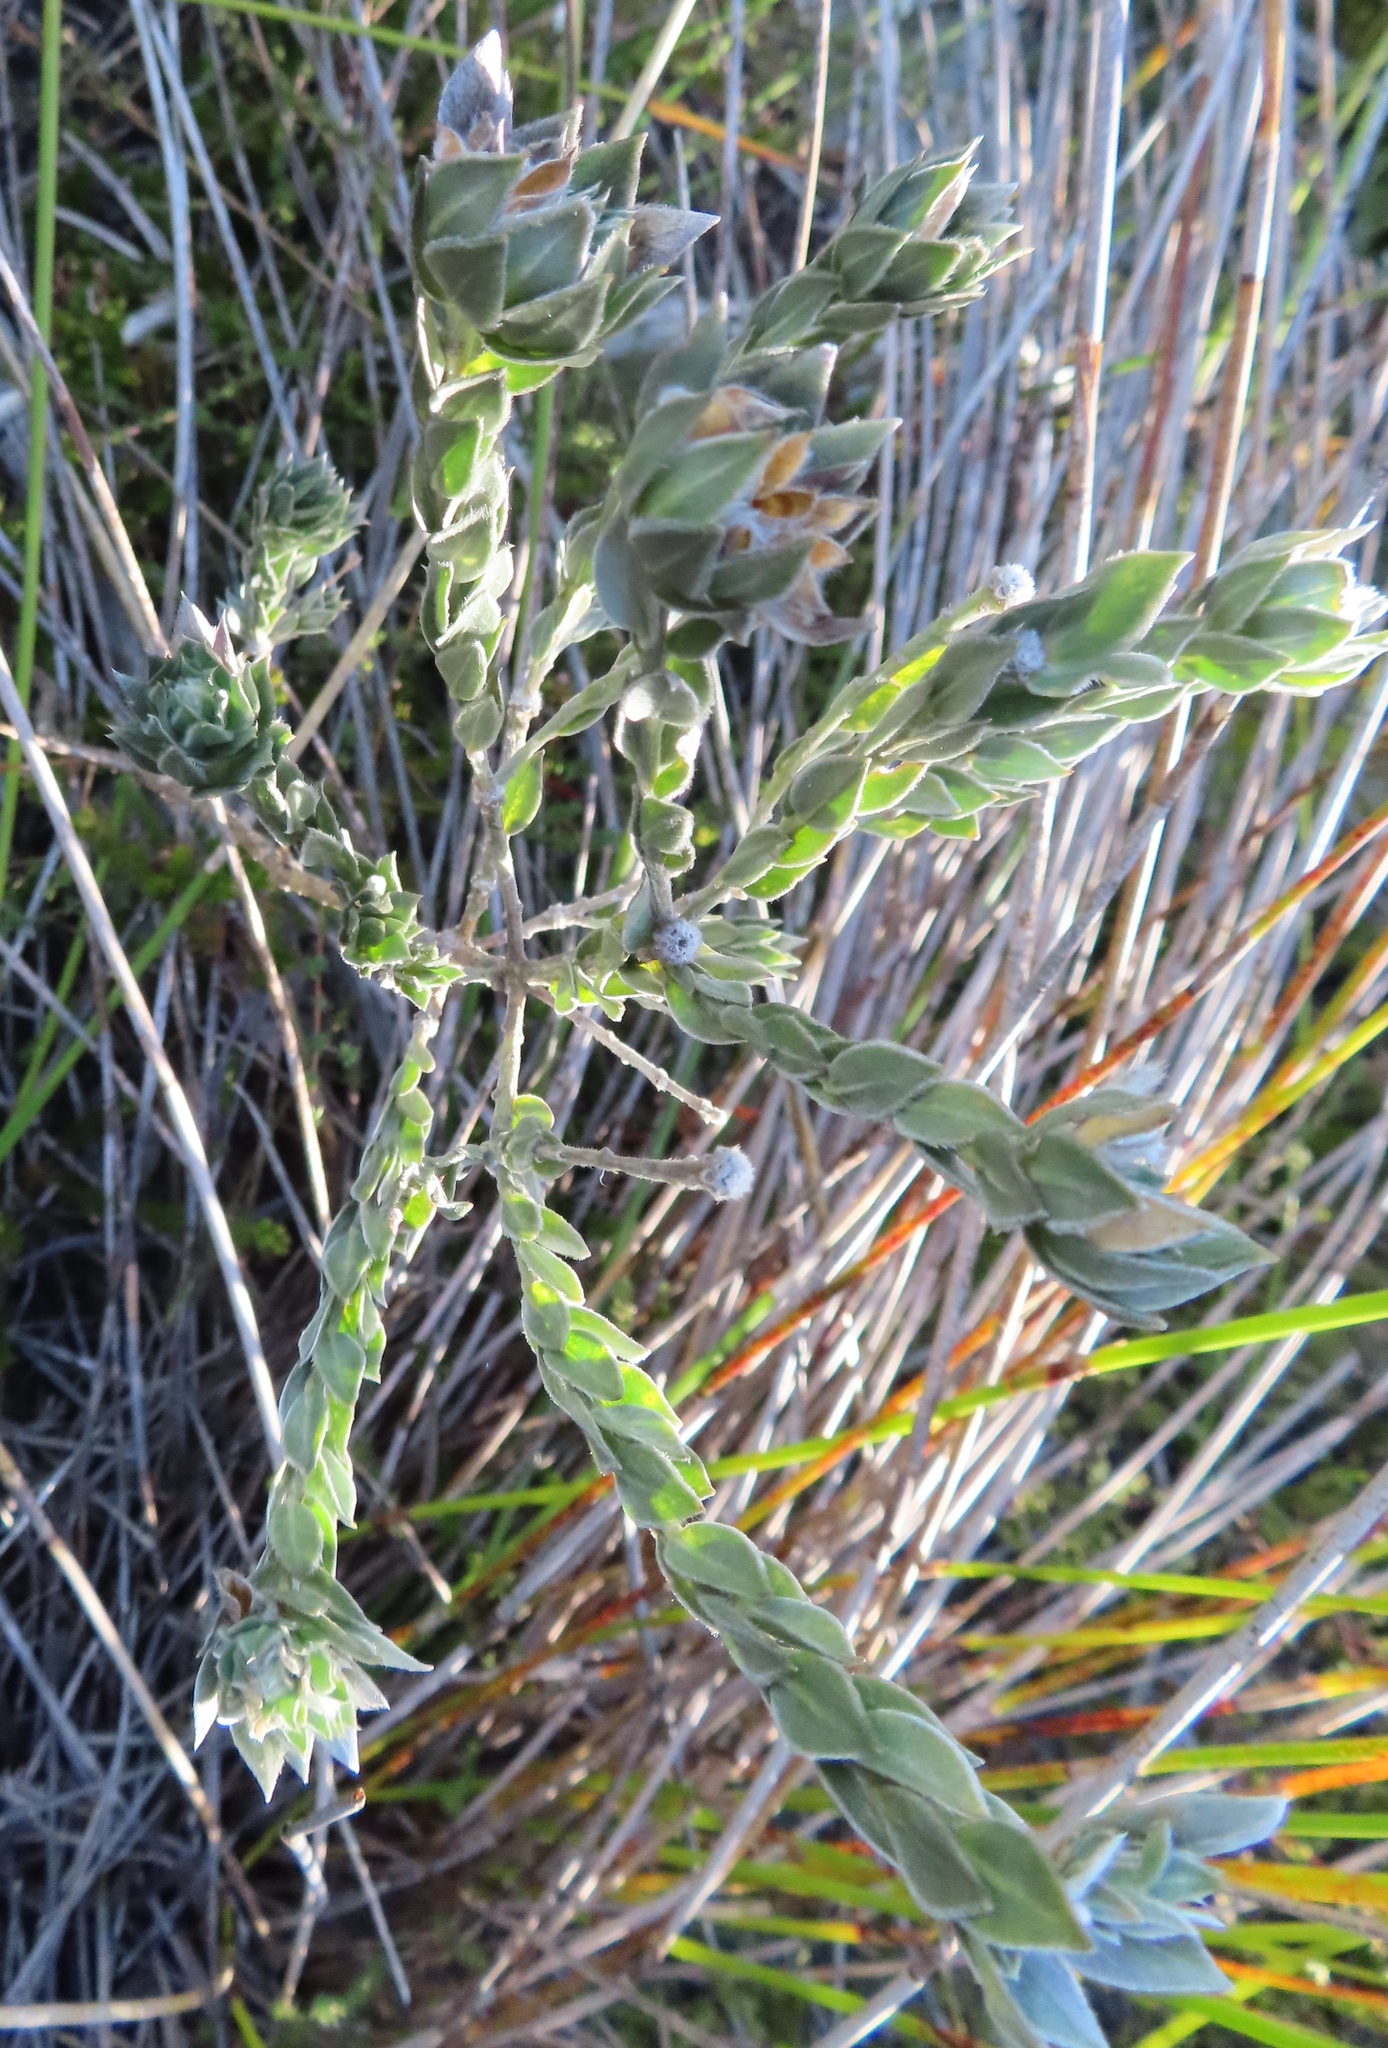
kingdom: Plantae
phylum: Tracheophyta
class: Magnoliopsida
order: Fabales
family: Fabaceae
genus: Xiphotheca
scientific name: Xiphotheca guthriei
